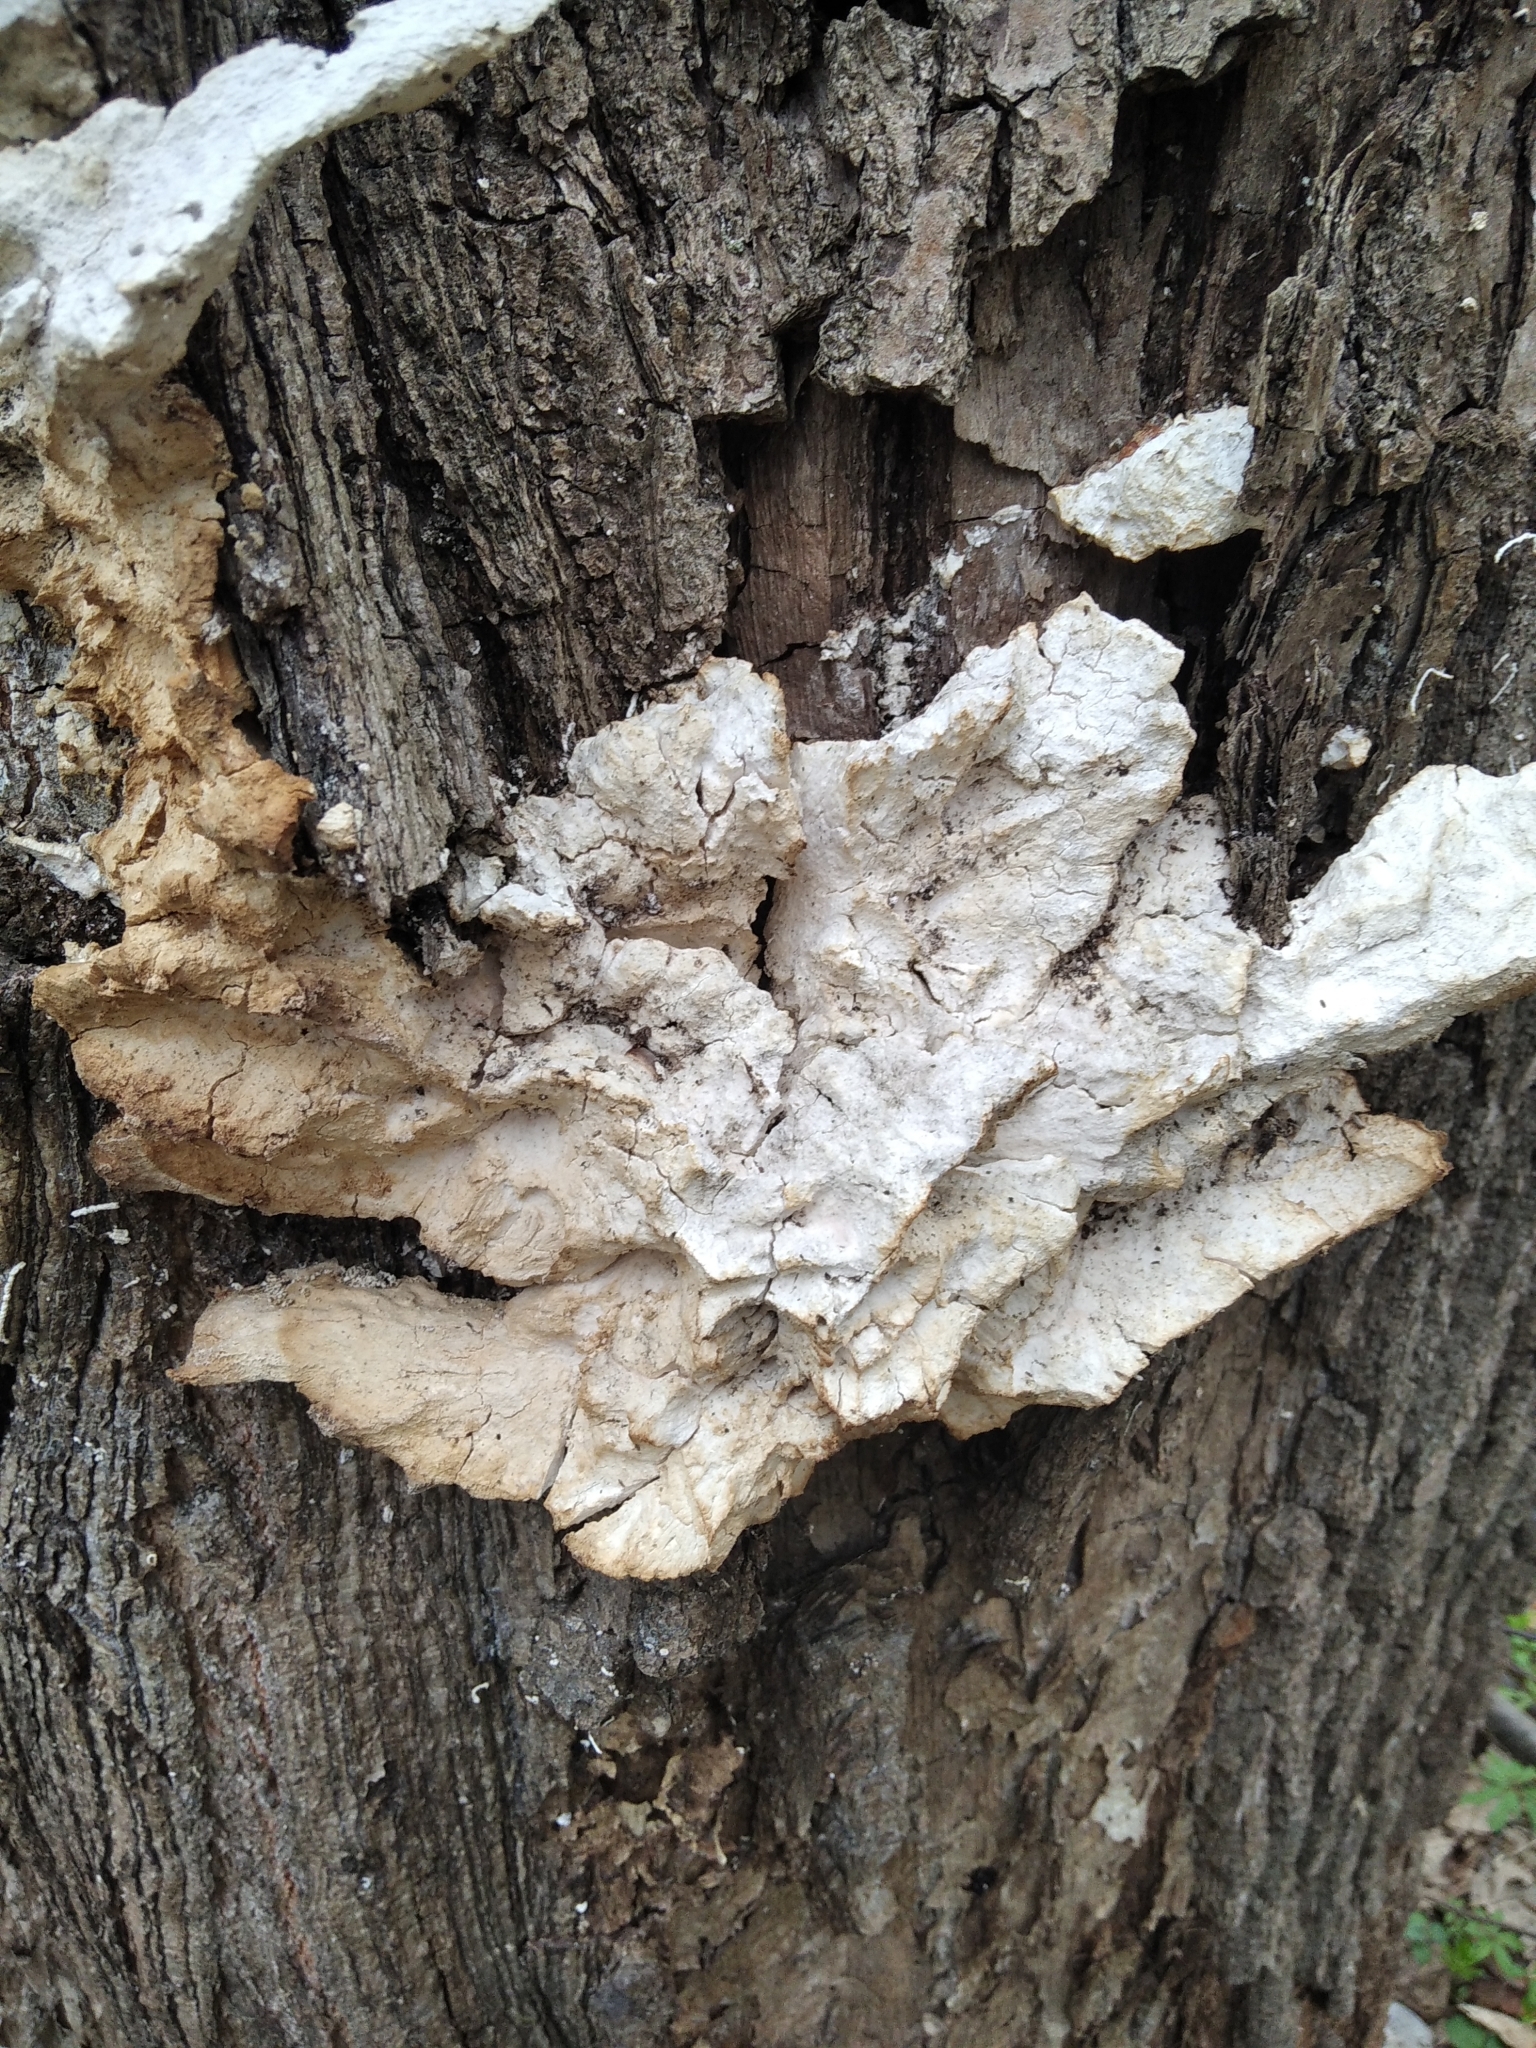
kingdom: Fungi
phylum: Basidiomycota
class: Agaricomycetes
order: Polyporales
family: Laetiporaceae
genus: Laetiporus
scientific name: Laetiporus sulphureus
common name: Chicken of the woods
